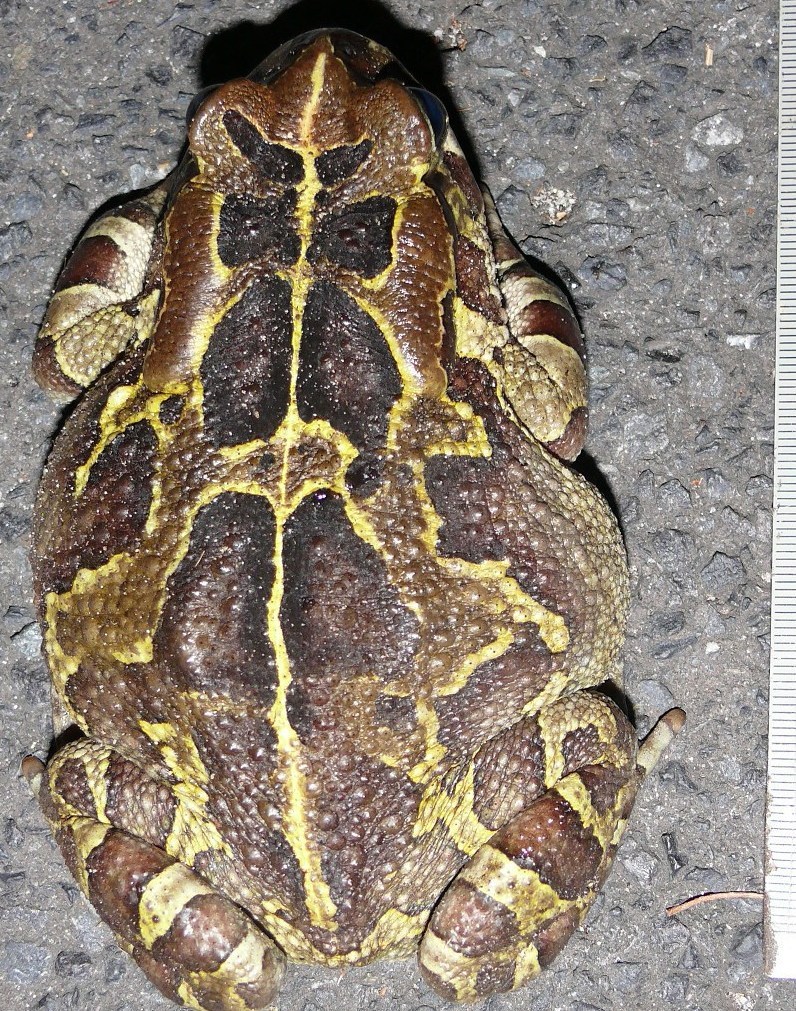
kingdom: Animalia
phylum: Chordata
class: Amphibia
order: Anura
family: Bufonidae
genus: Sclerophrys
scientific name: Sclerophrys pantherina
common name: Panther toad
